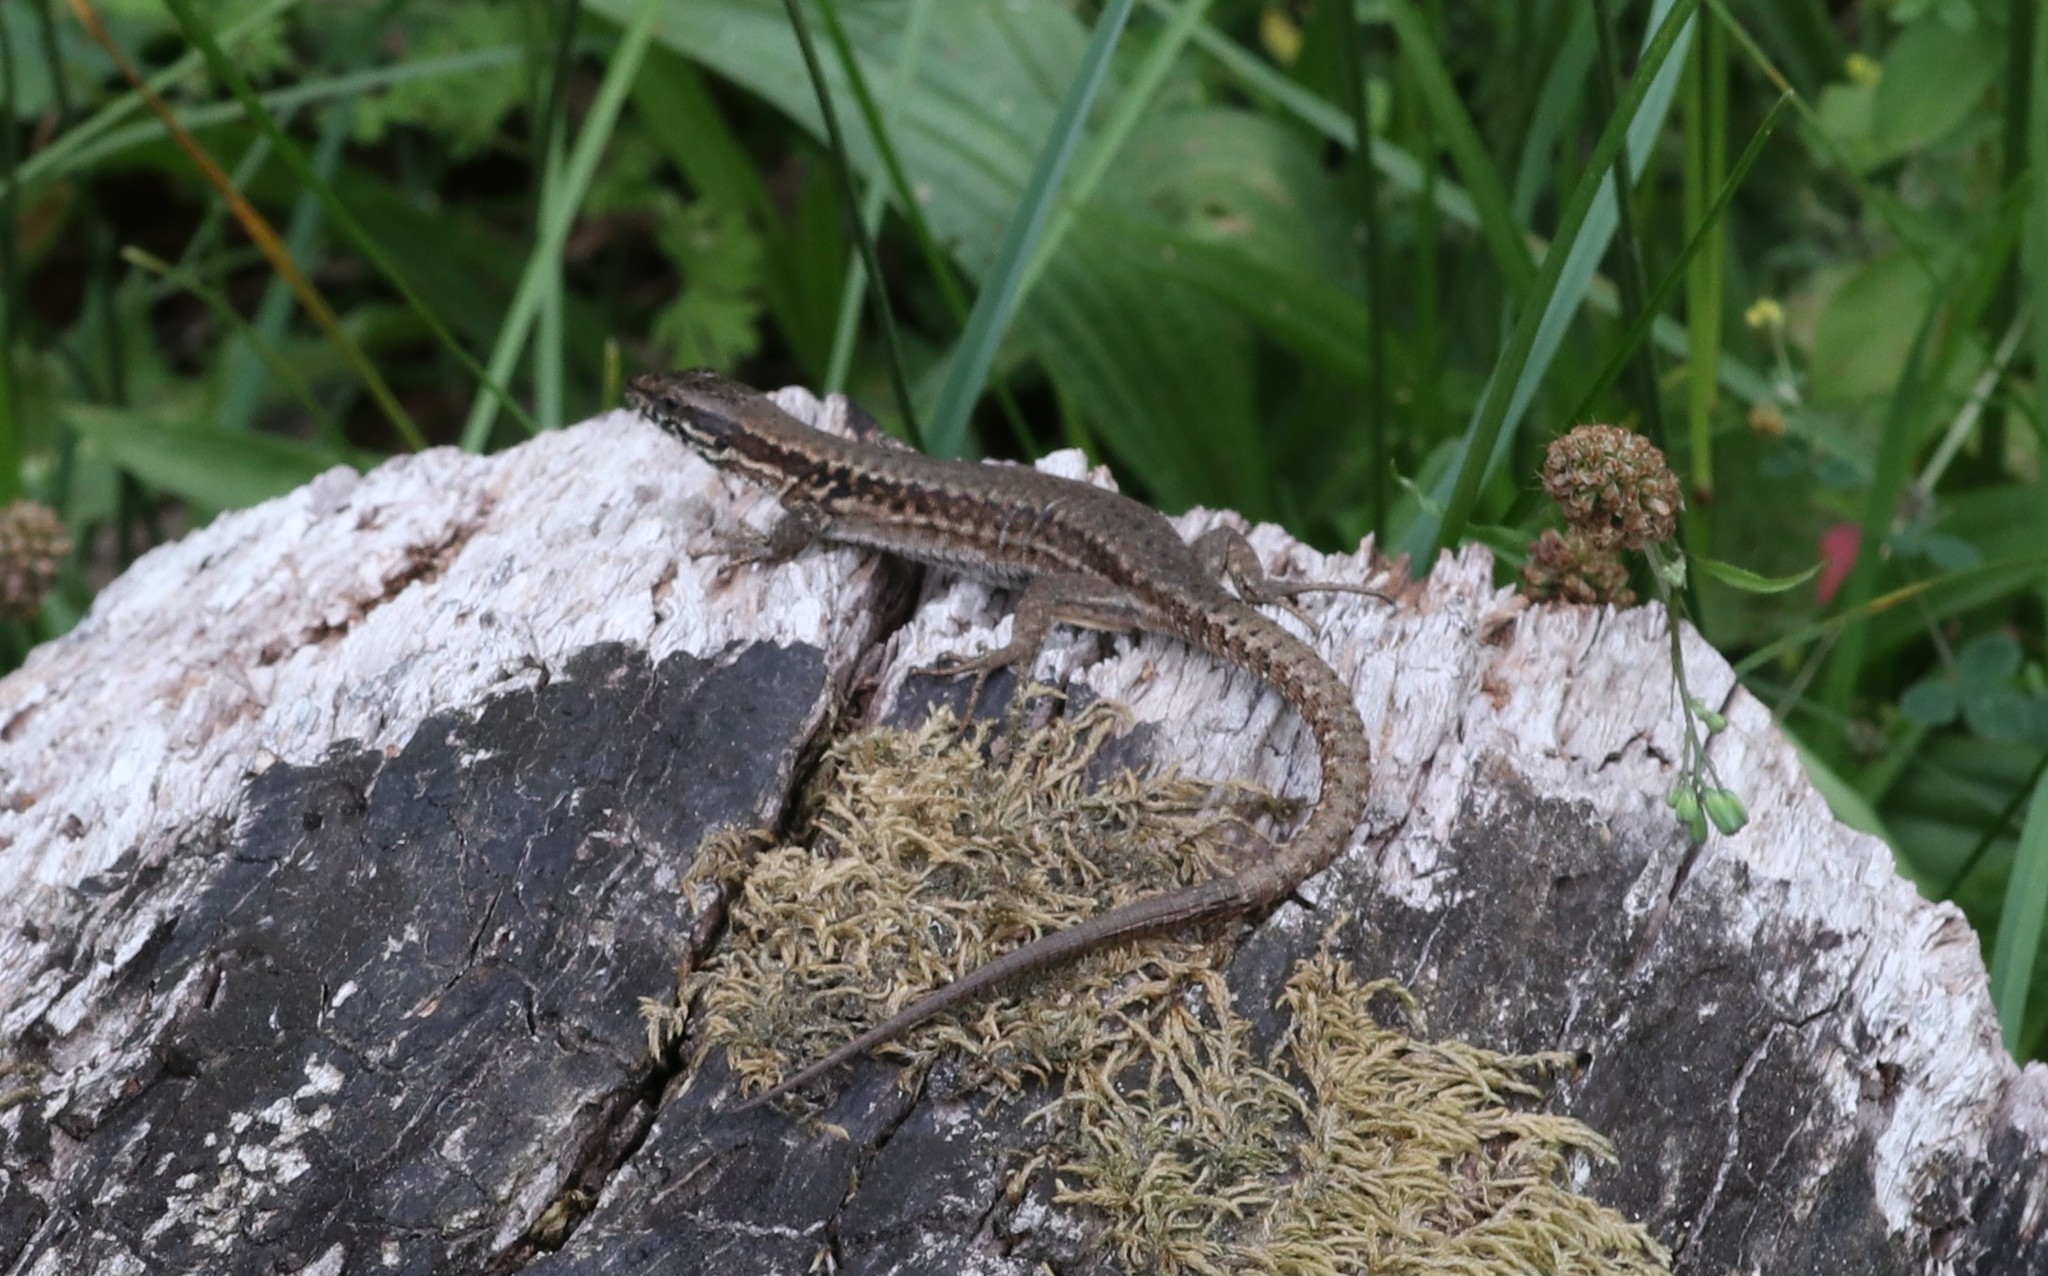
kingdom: Animalia
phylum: Chordata
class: Squamata
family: Lacertidae
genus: Podarcis
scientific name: Podarcis muralis
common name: Common wall lizard
